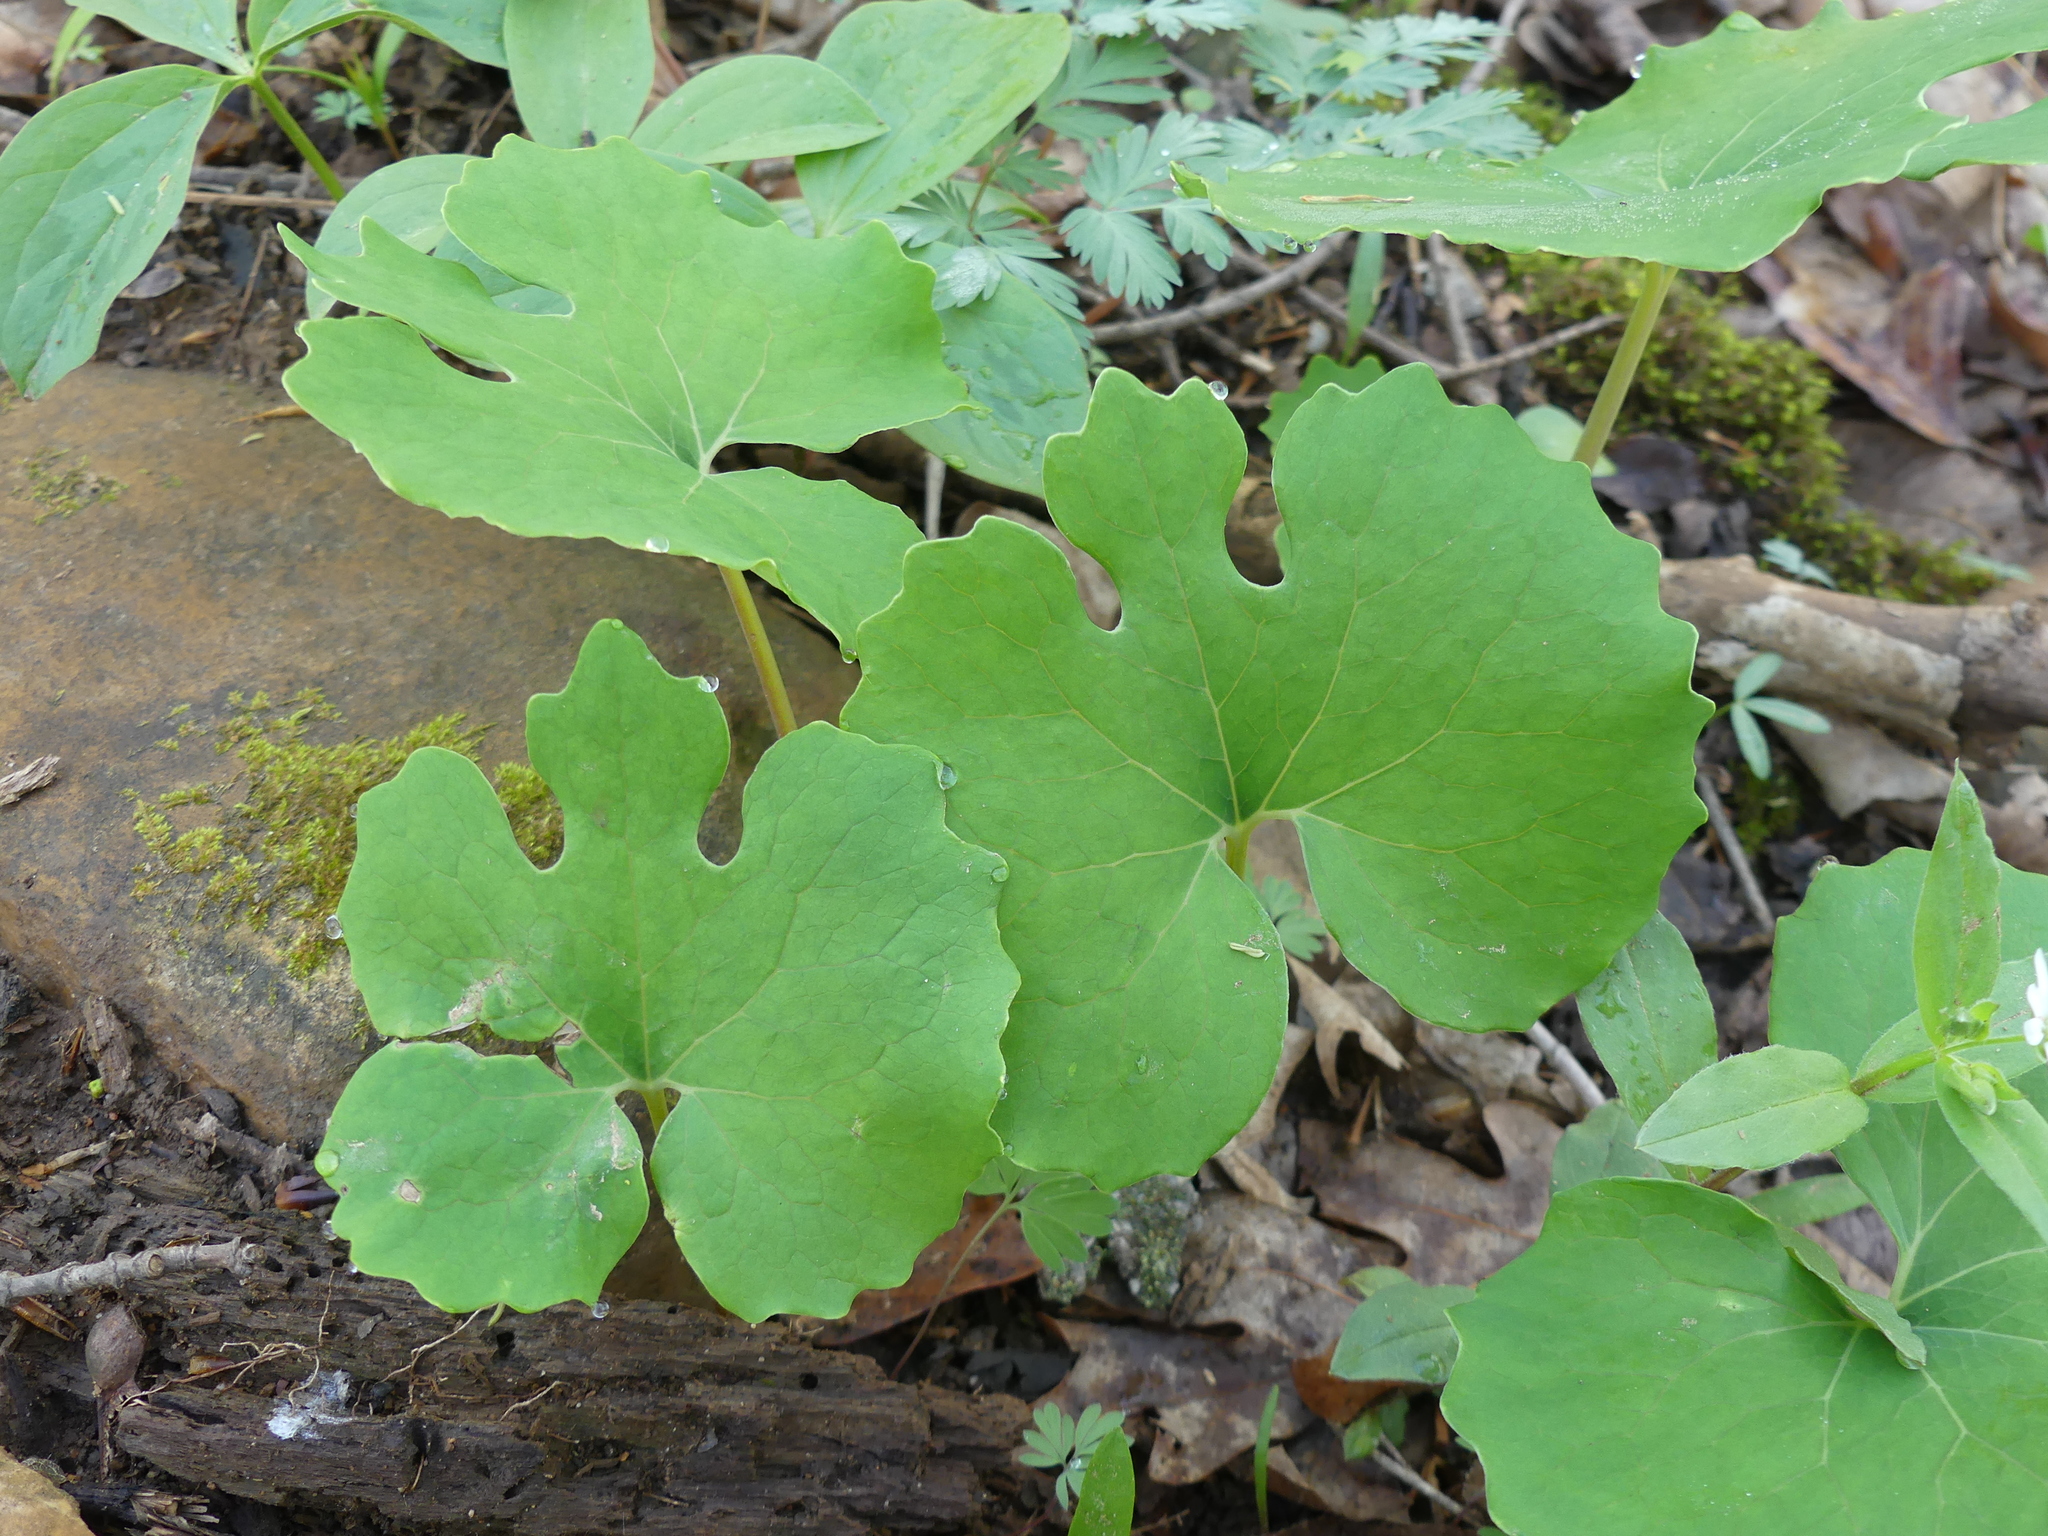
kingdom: Plantae
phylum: Tracheophyta
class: Magnoliopsida
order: Ranunculales
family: Papaveraceae
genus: Sanguinaria
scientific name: Sanguinaria canadensis
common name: Bloodroot
